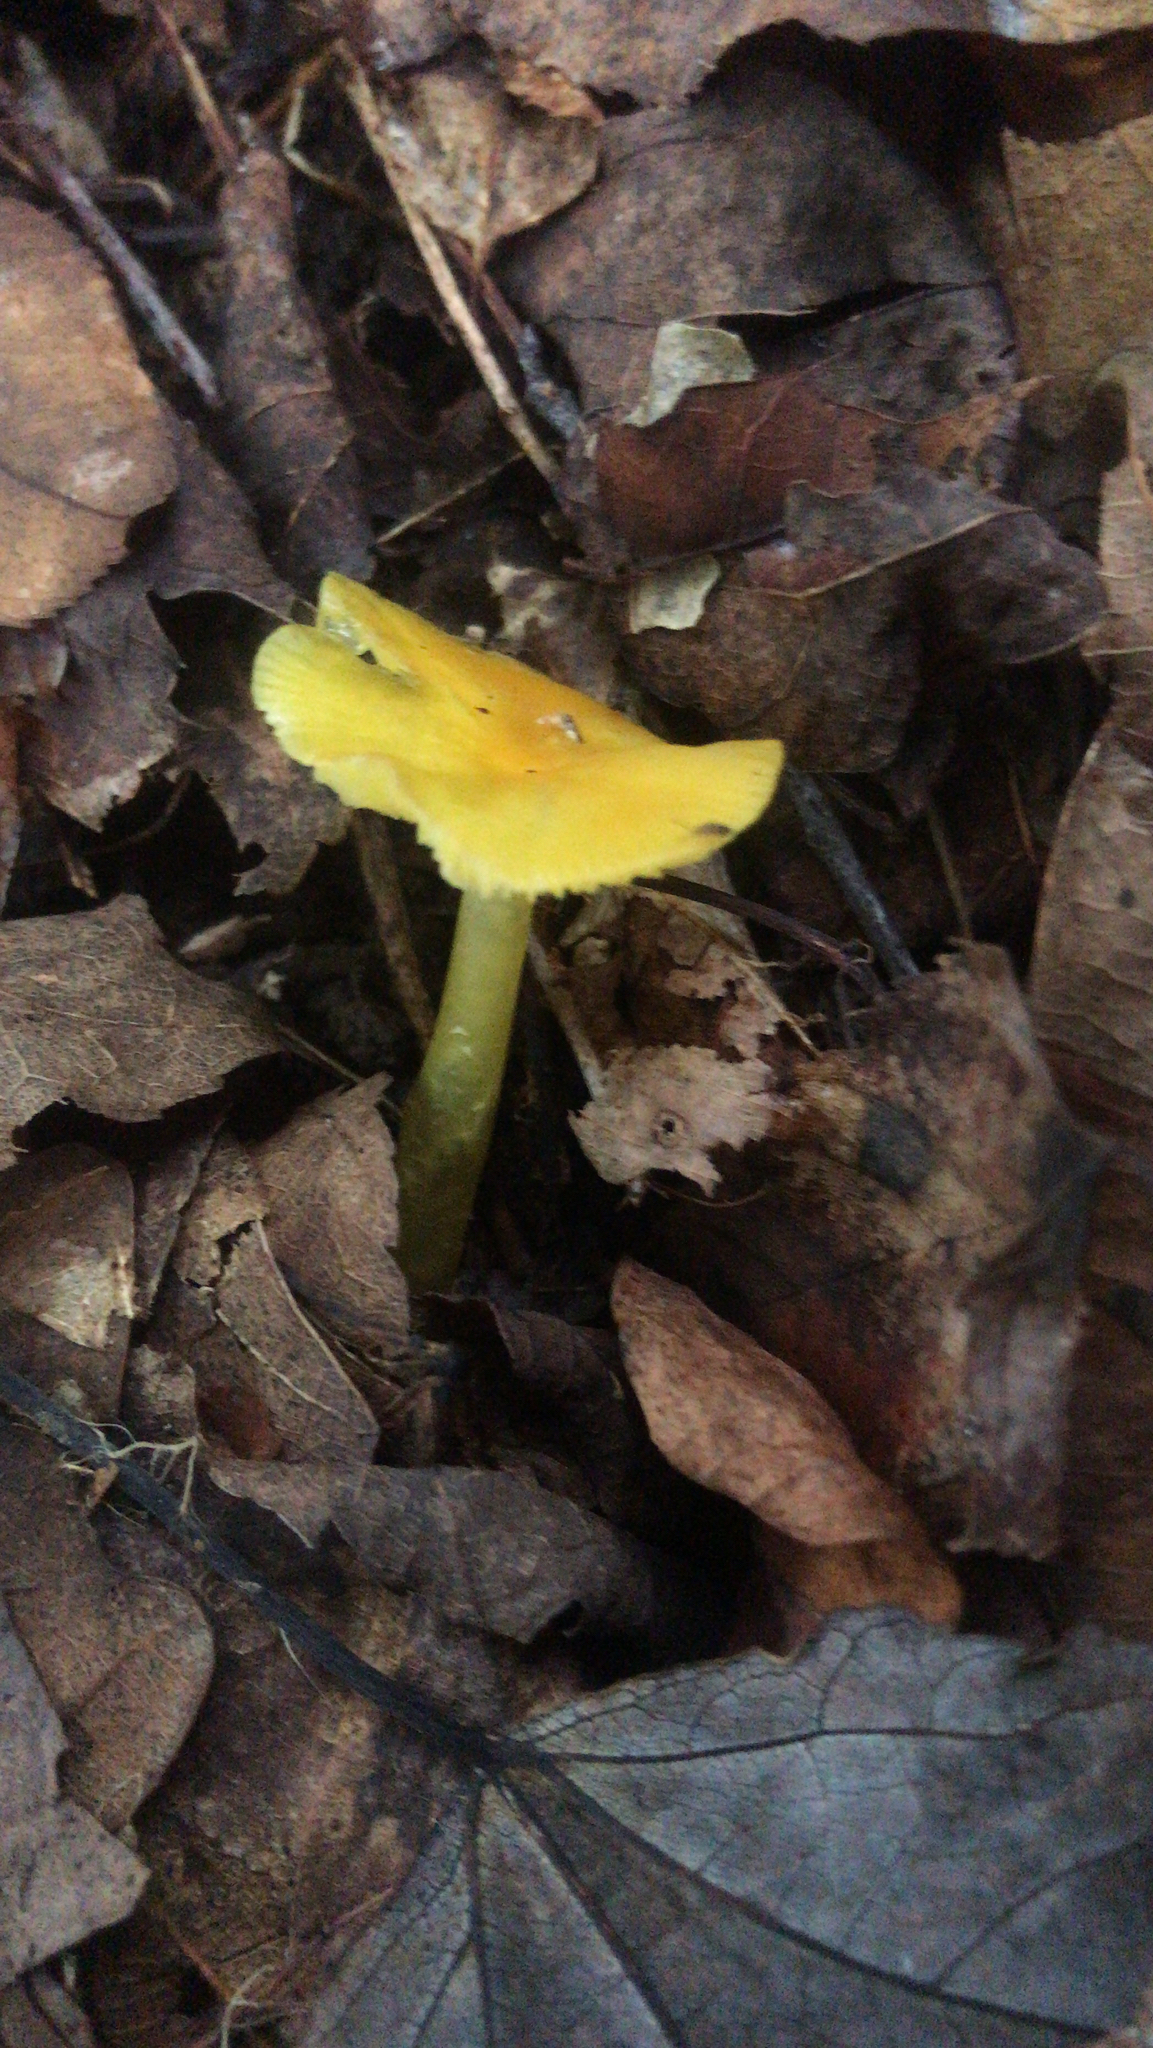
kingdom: Fungi
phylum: Basidiomycota
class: Agaricomycetes
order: Agaricales
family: Hygrophoraceae
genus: Hygrocybe
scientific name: Hygrocybe flavescens
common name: Golden waxy cap
